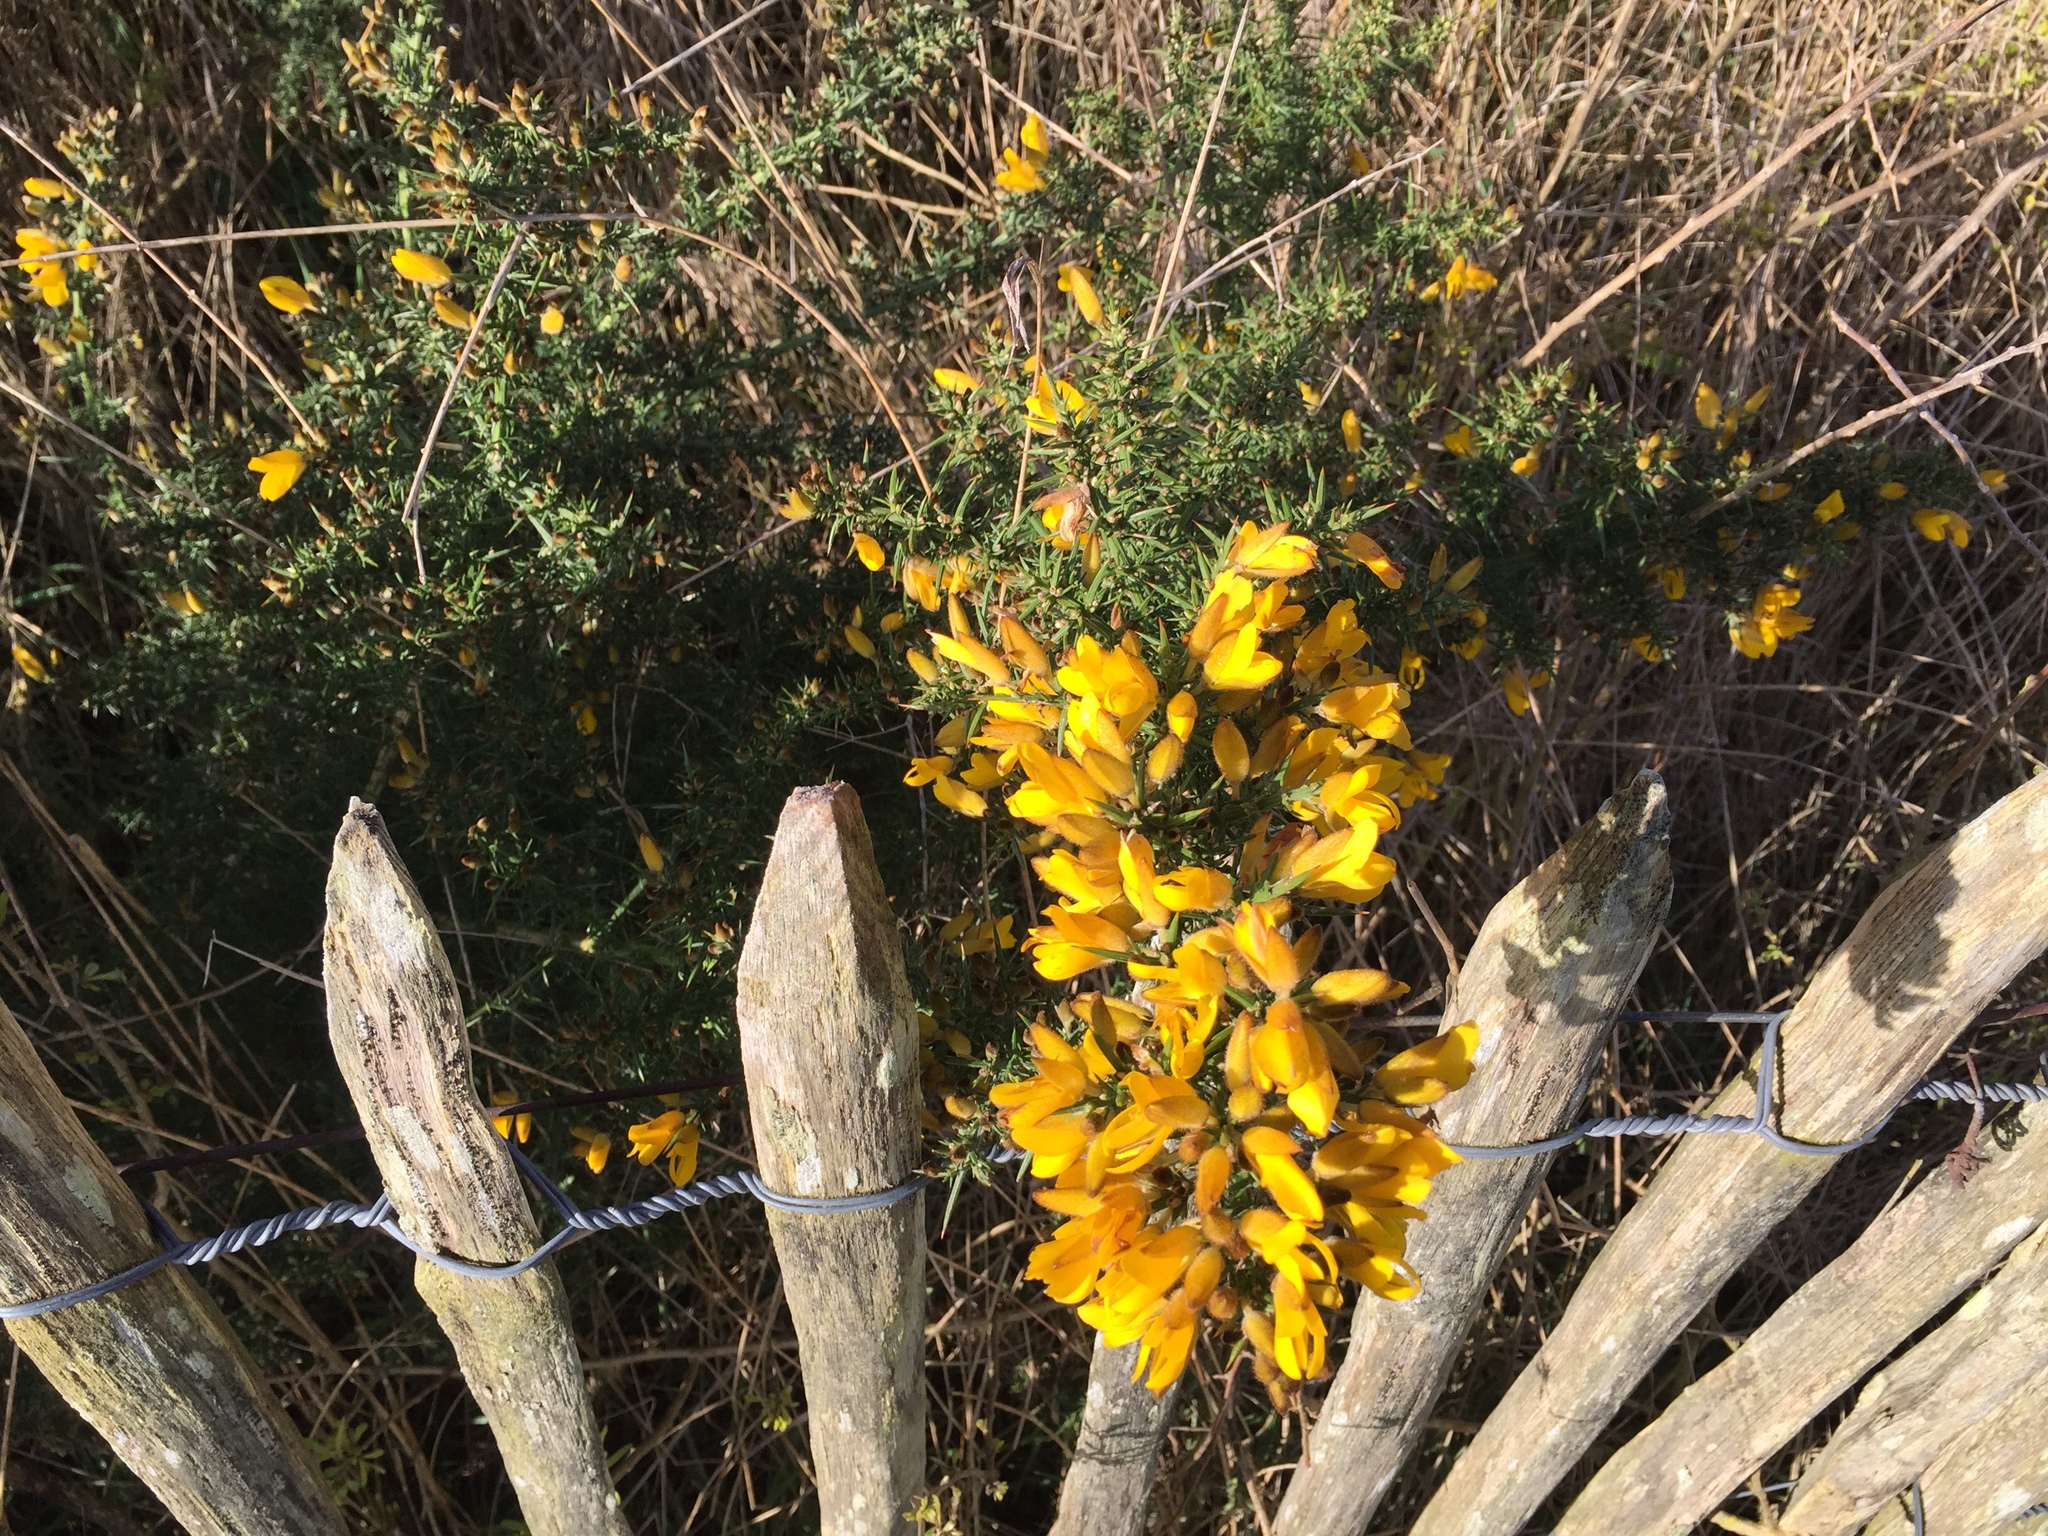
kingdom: Plantae
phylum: Tracheophyta
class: Magnoliopsida
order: Fabales
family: Fabaceae
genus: Ulex
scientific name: Ulex europaeus
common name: Common gorse
